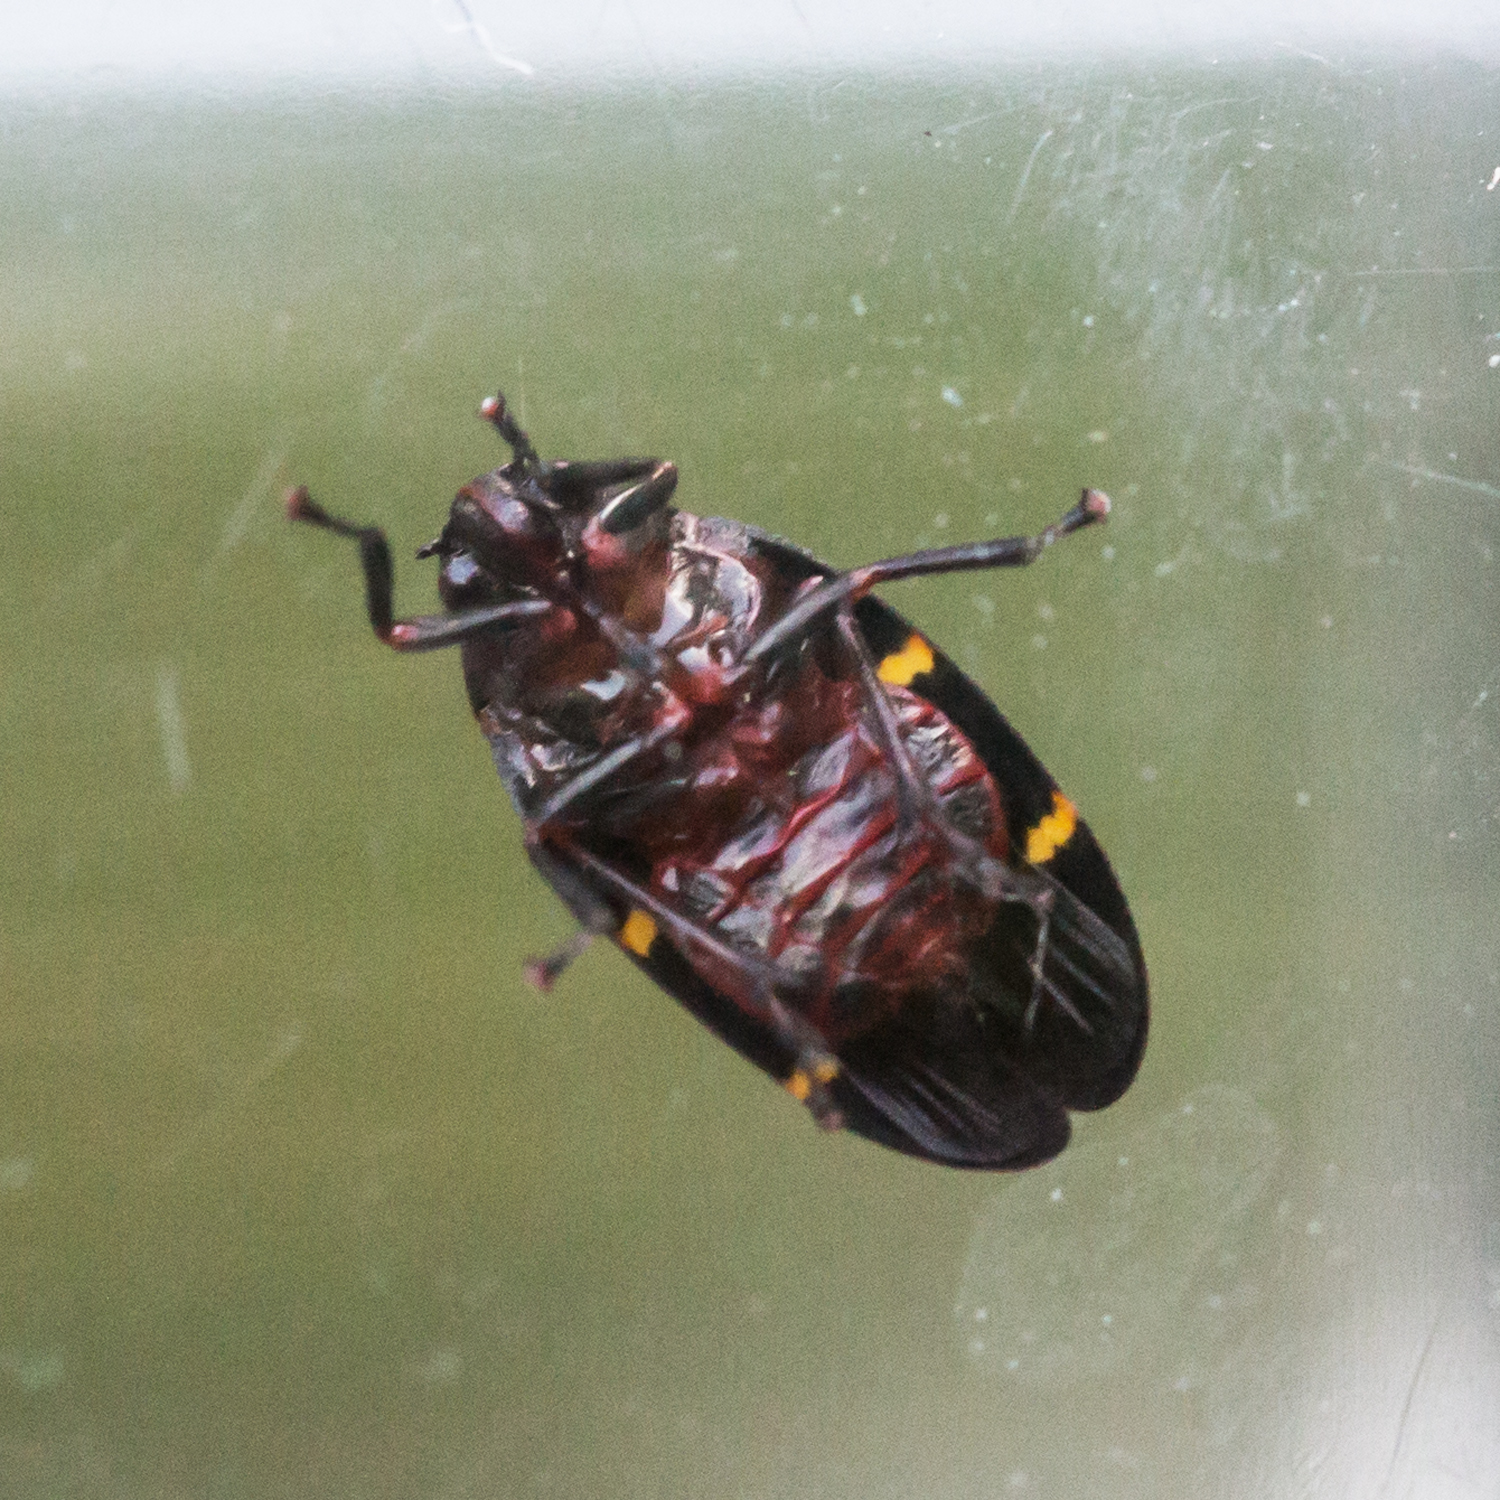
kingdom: Animalia
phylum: Arthropoda
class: Insecta
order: Hemiptera
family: Cercopidae
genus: Prosapia
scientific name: Prosapia bicincta
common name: Twolined spittlebug
